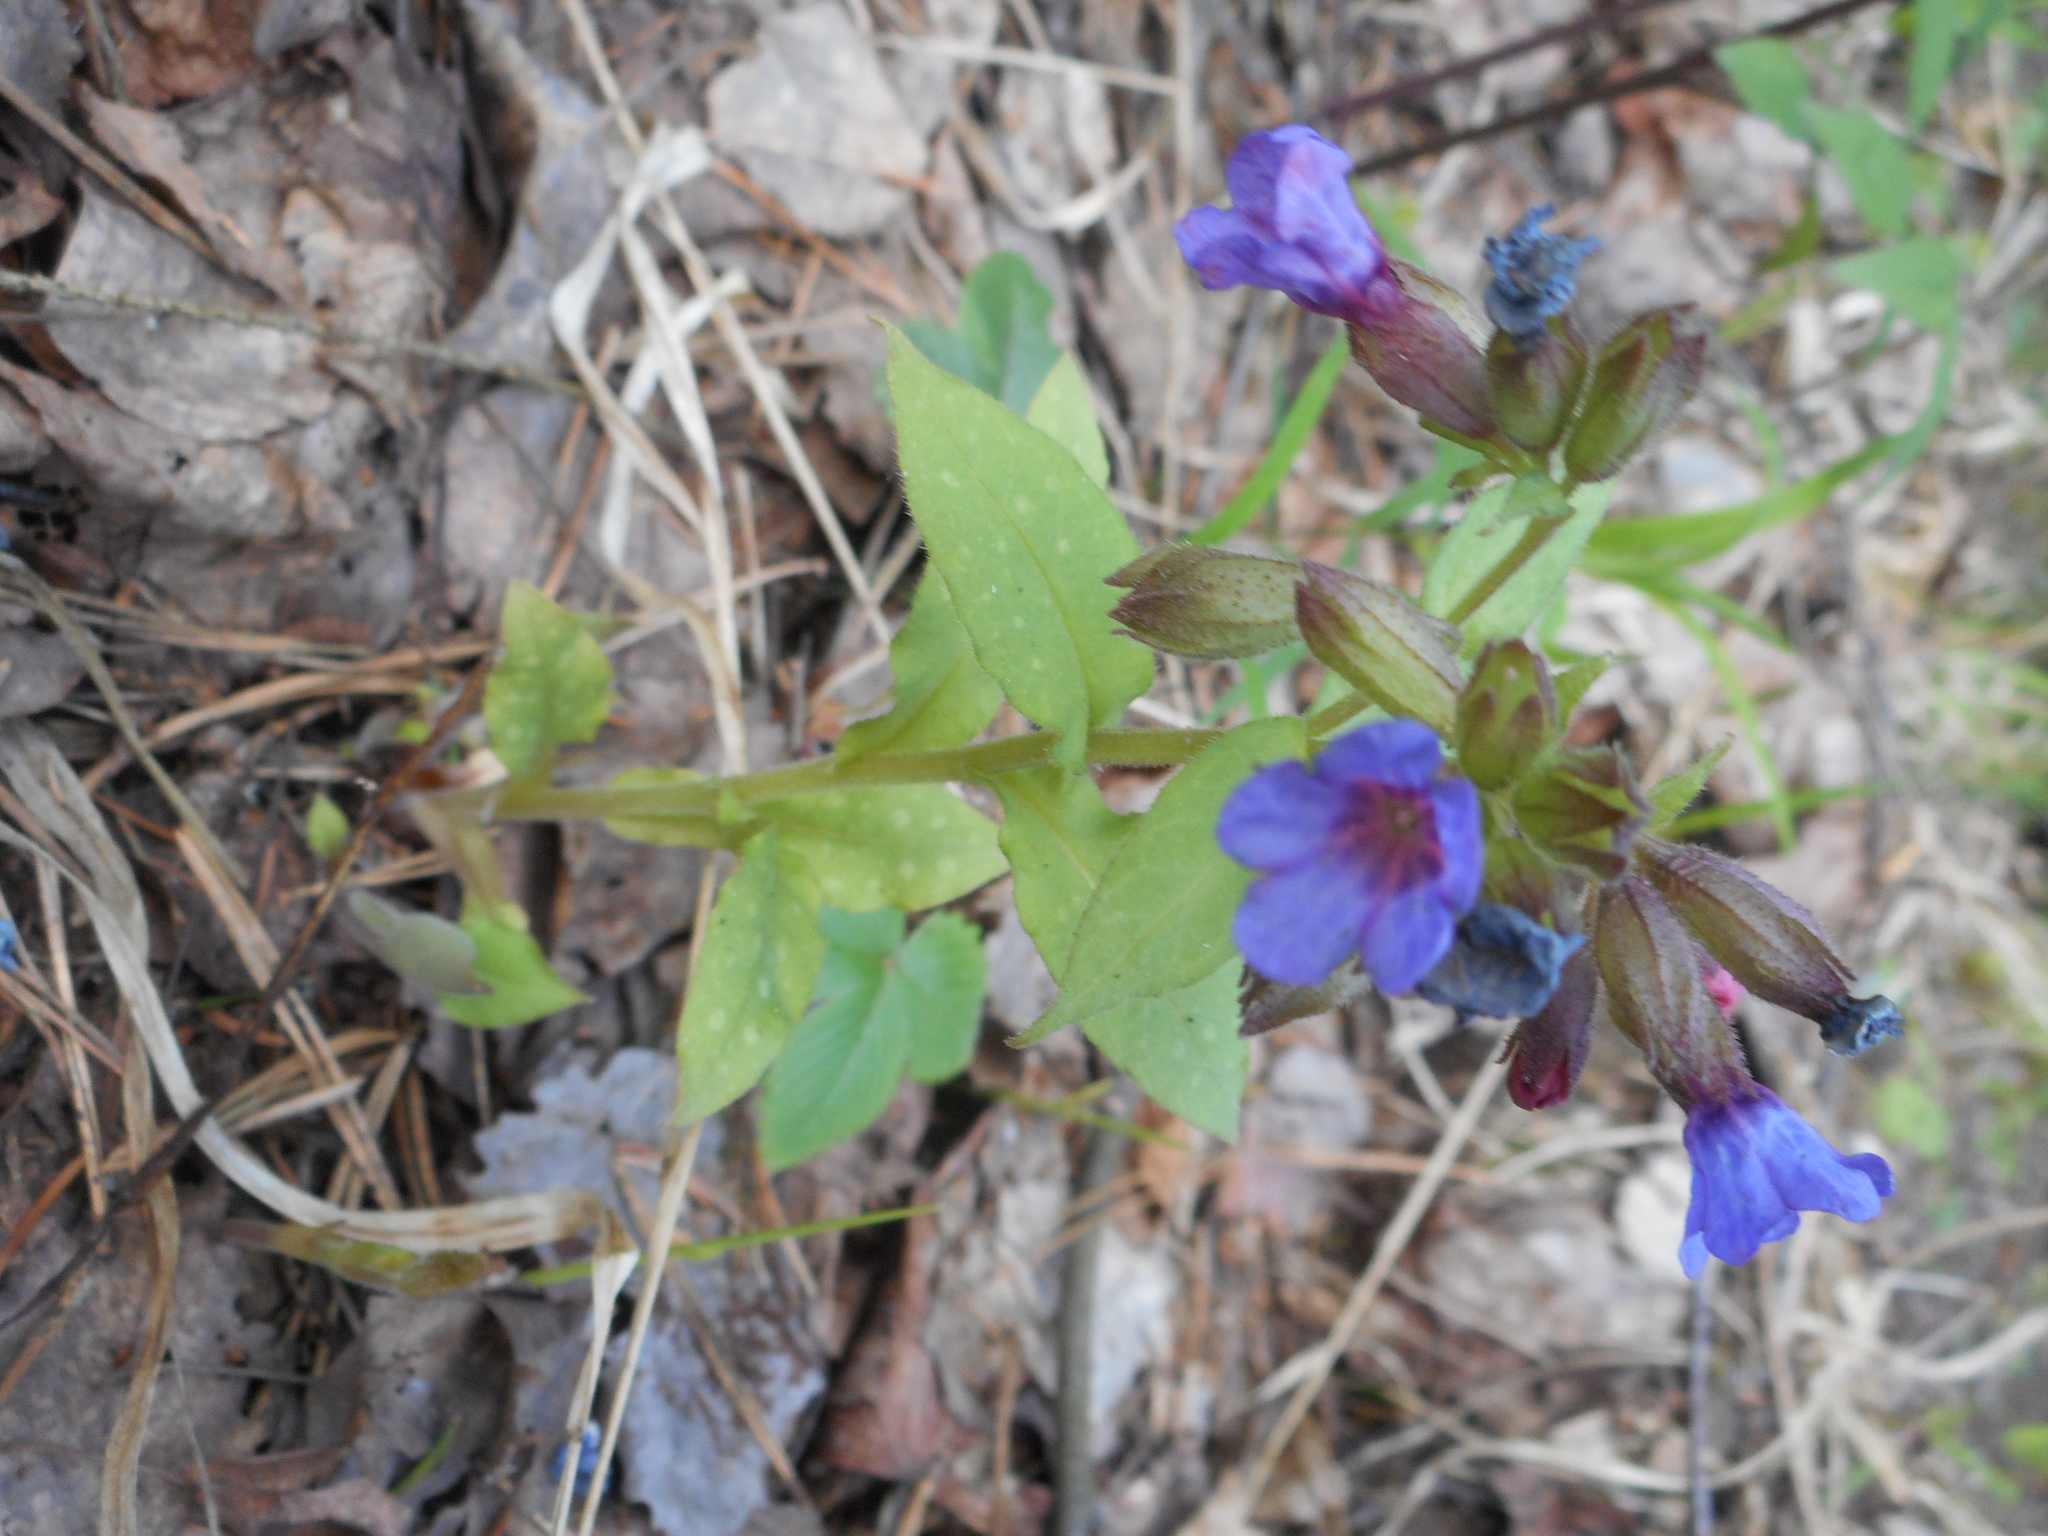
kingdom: Plantae
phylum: Tracheophyta
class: Magnoliopsida
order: Boraginales
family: Boraginaceae
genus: Pulmonaria
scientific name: Pulmonaria obscura
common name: Suffolk lungwort
